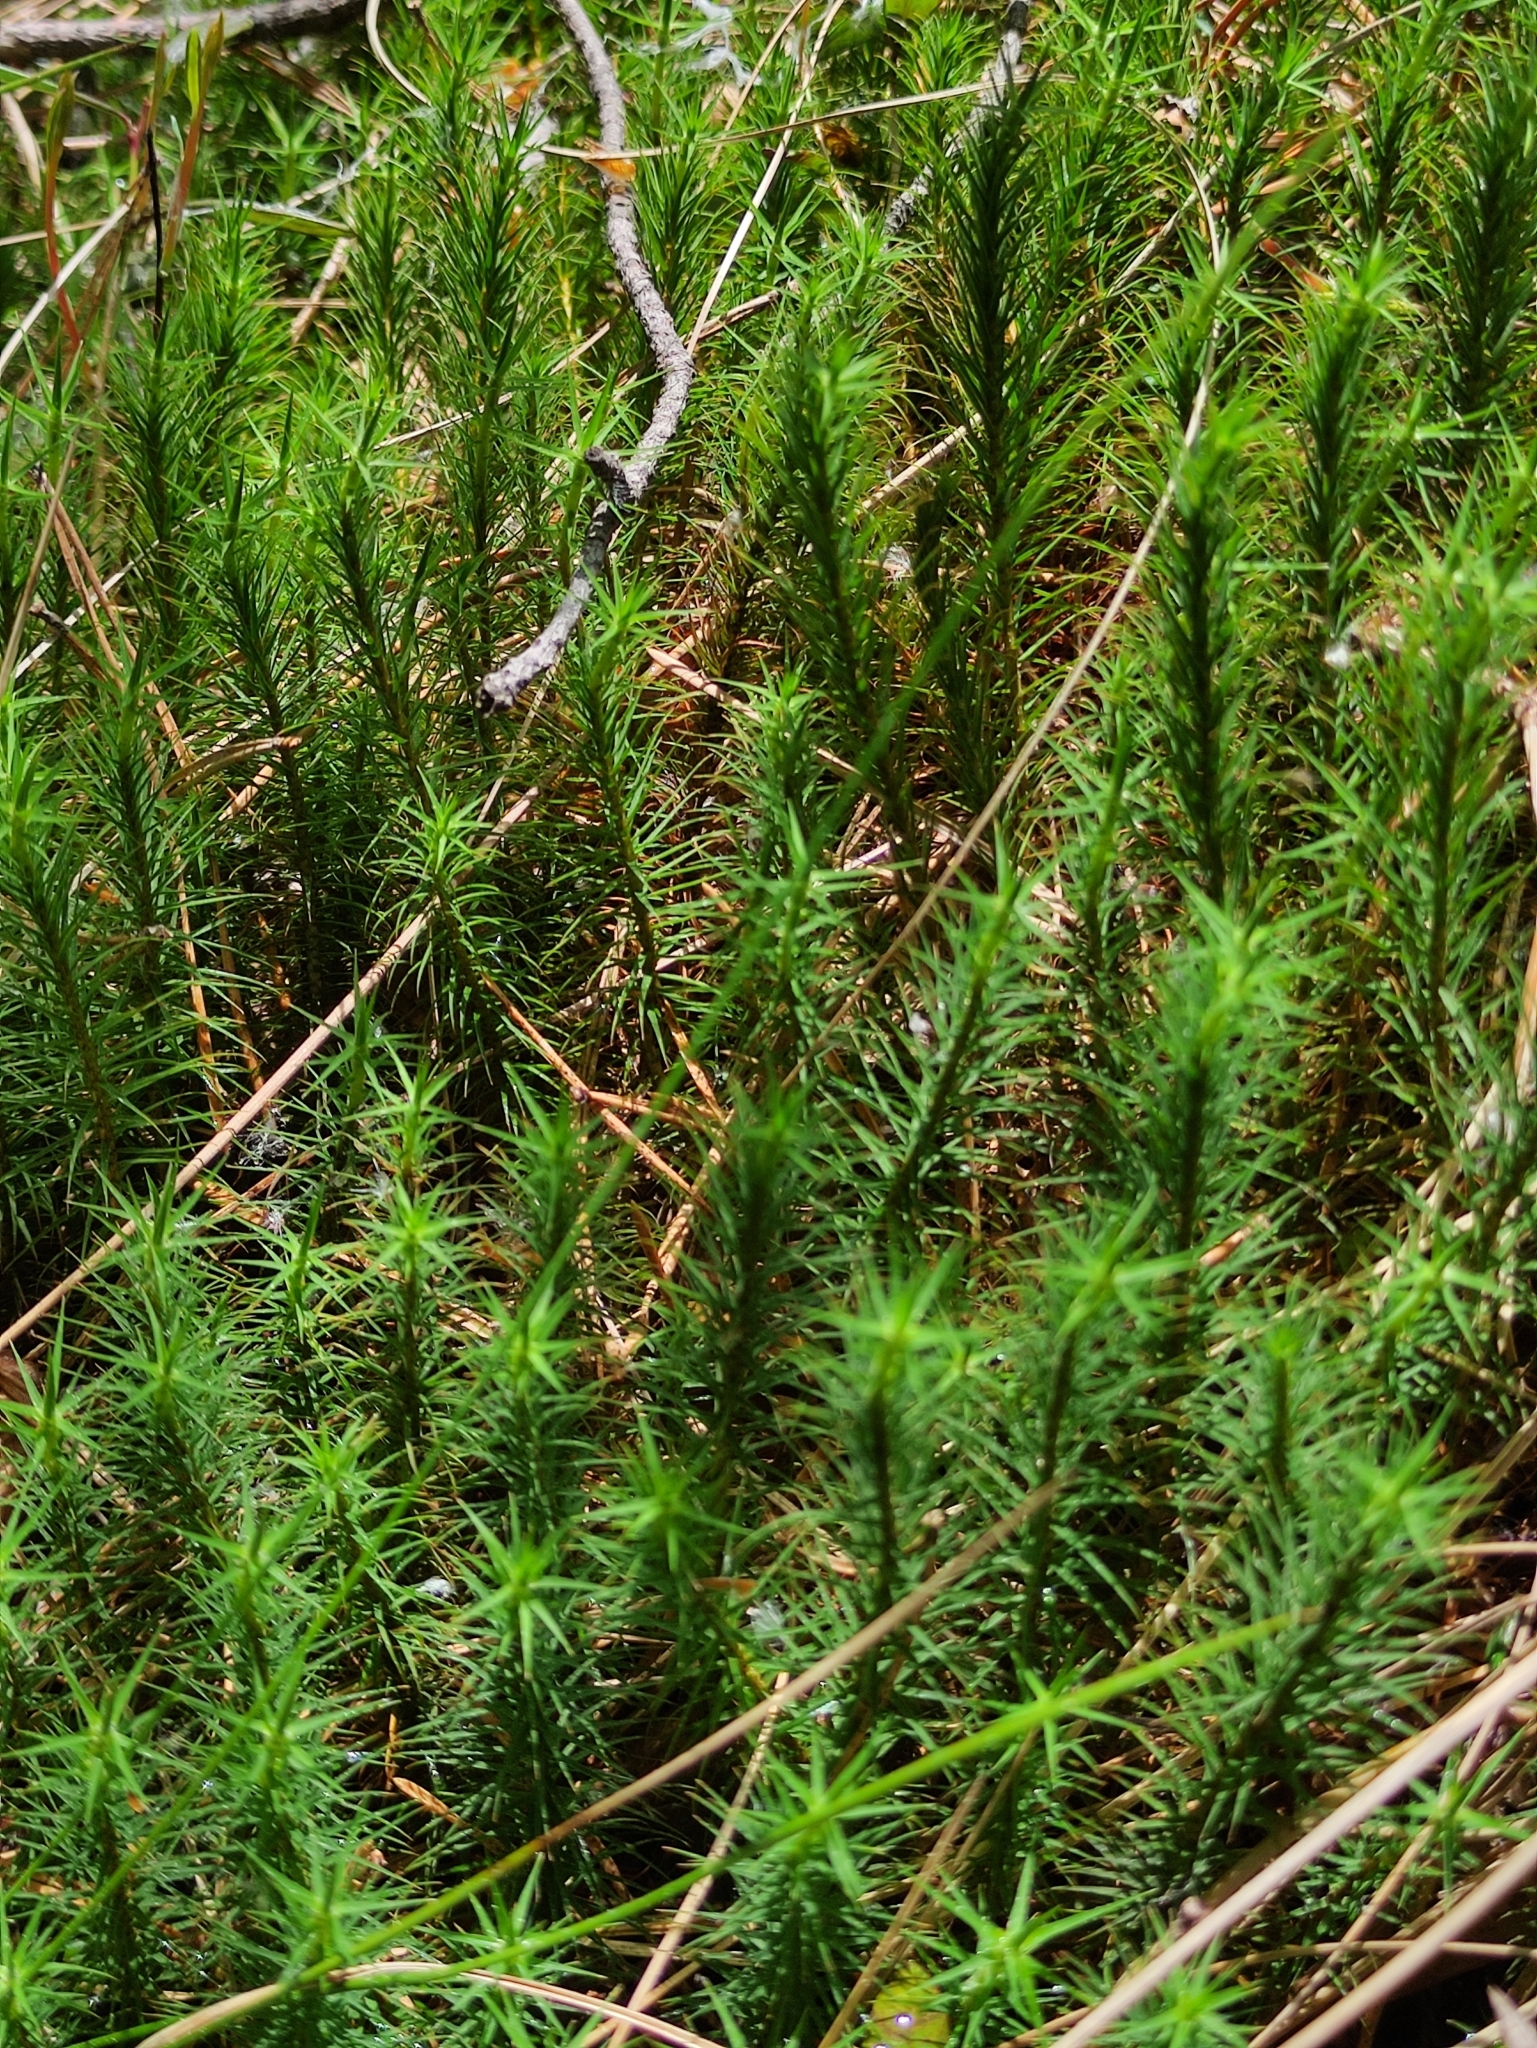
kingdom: Plantae
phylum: Bryophyta
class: Polytrichopsida
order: Polytrichales
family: Polytrichaceae
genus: Polytrichum
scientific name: Polytrichum commune
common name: Common haircap
